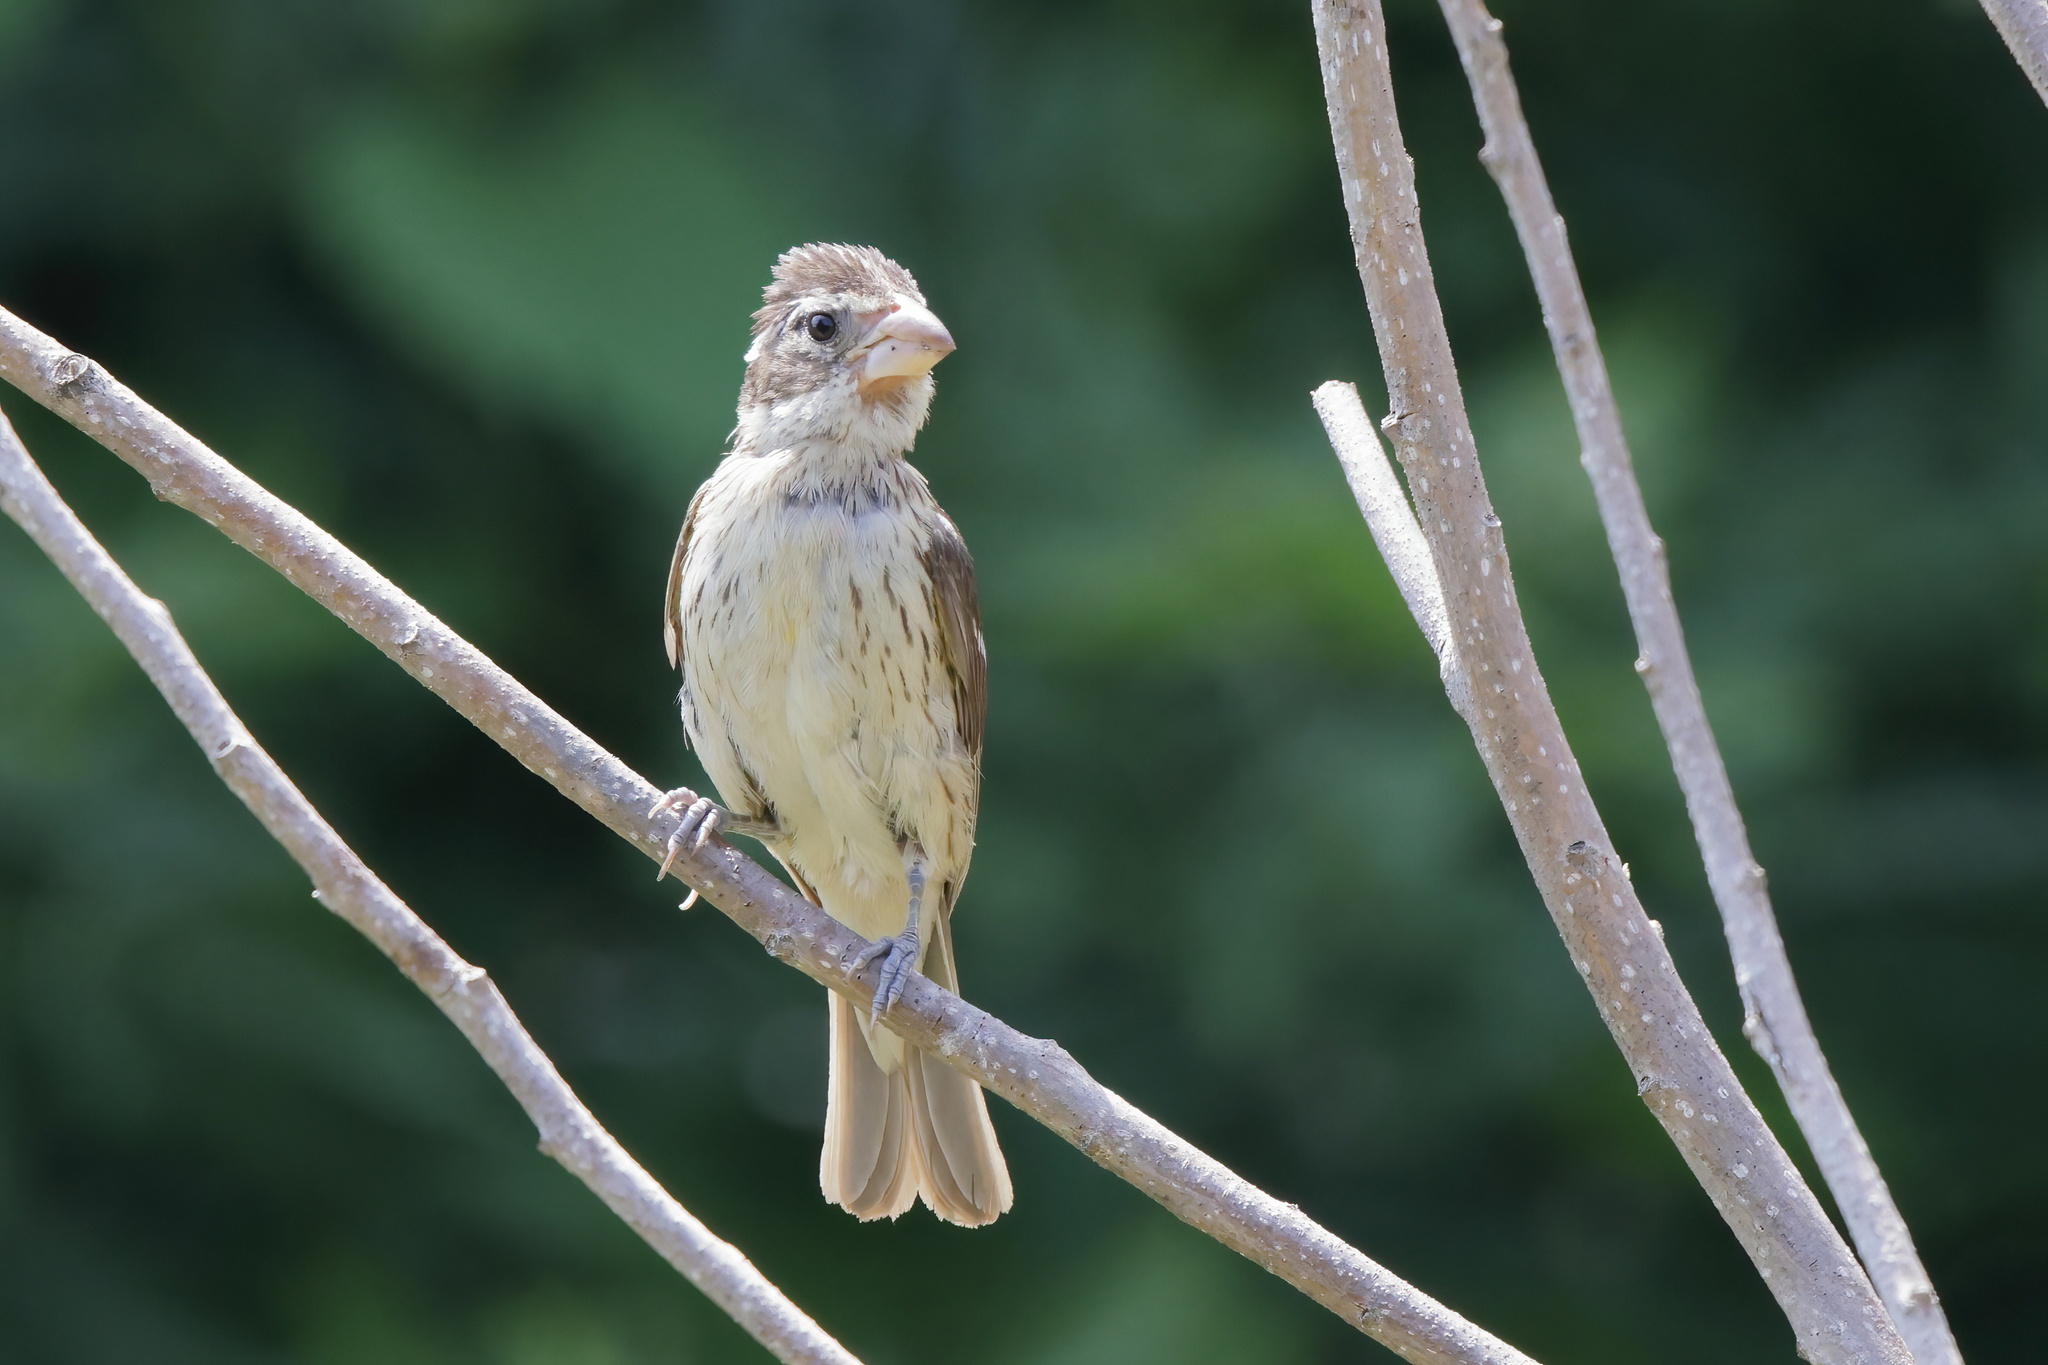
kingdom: Animalia
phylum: Chordata
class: Aves
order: Passeriformes
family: Cardinalidae
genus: Pheucticus
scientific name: Pheucticus ludovicianus
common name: Rose-breasted grosbeak
